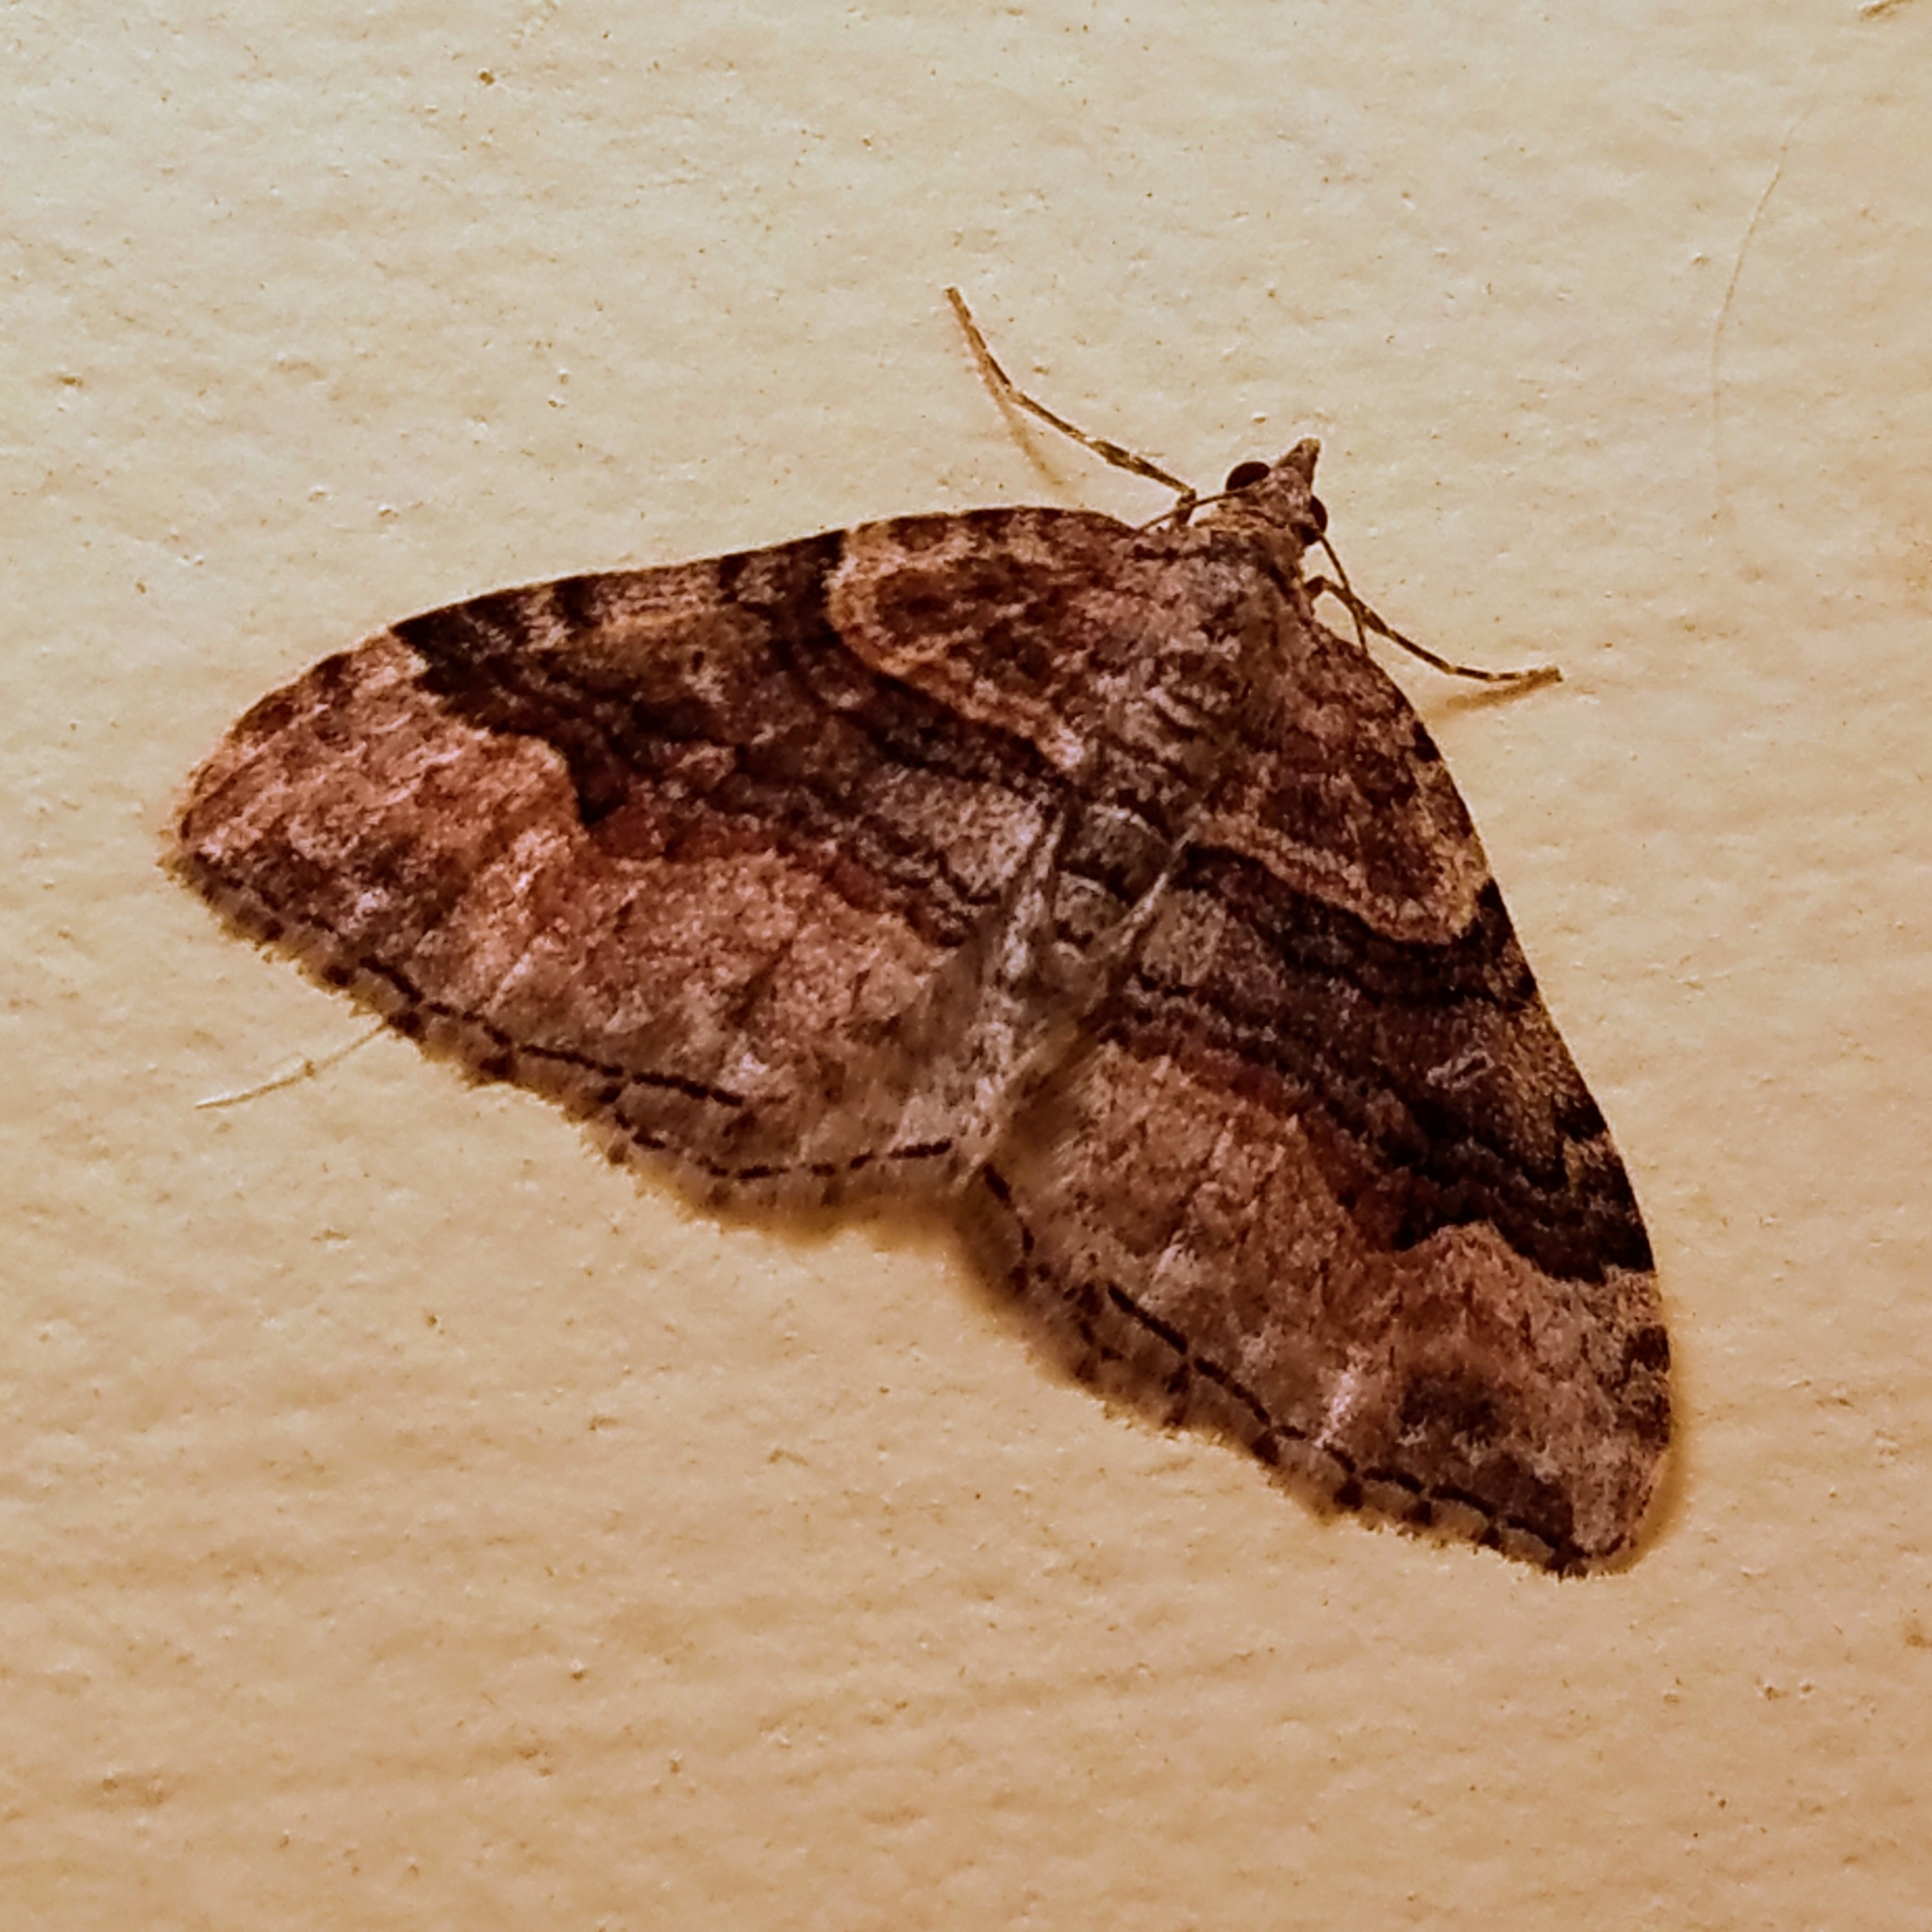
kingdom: Animalia
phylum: Arthropoda
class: Insecta
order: Lepidoptera
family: Geometridae
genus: Xanthorhoe
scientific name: Xanthorhoe defensaria
